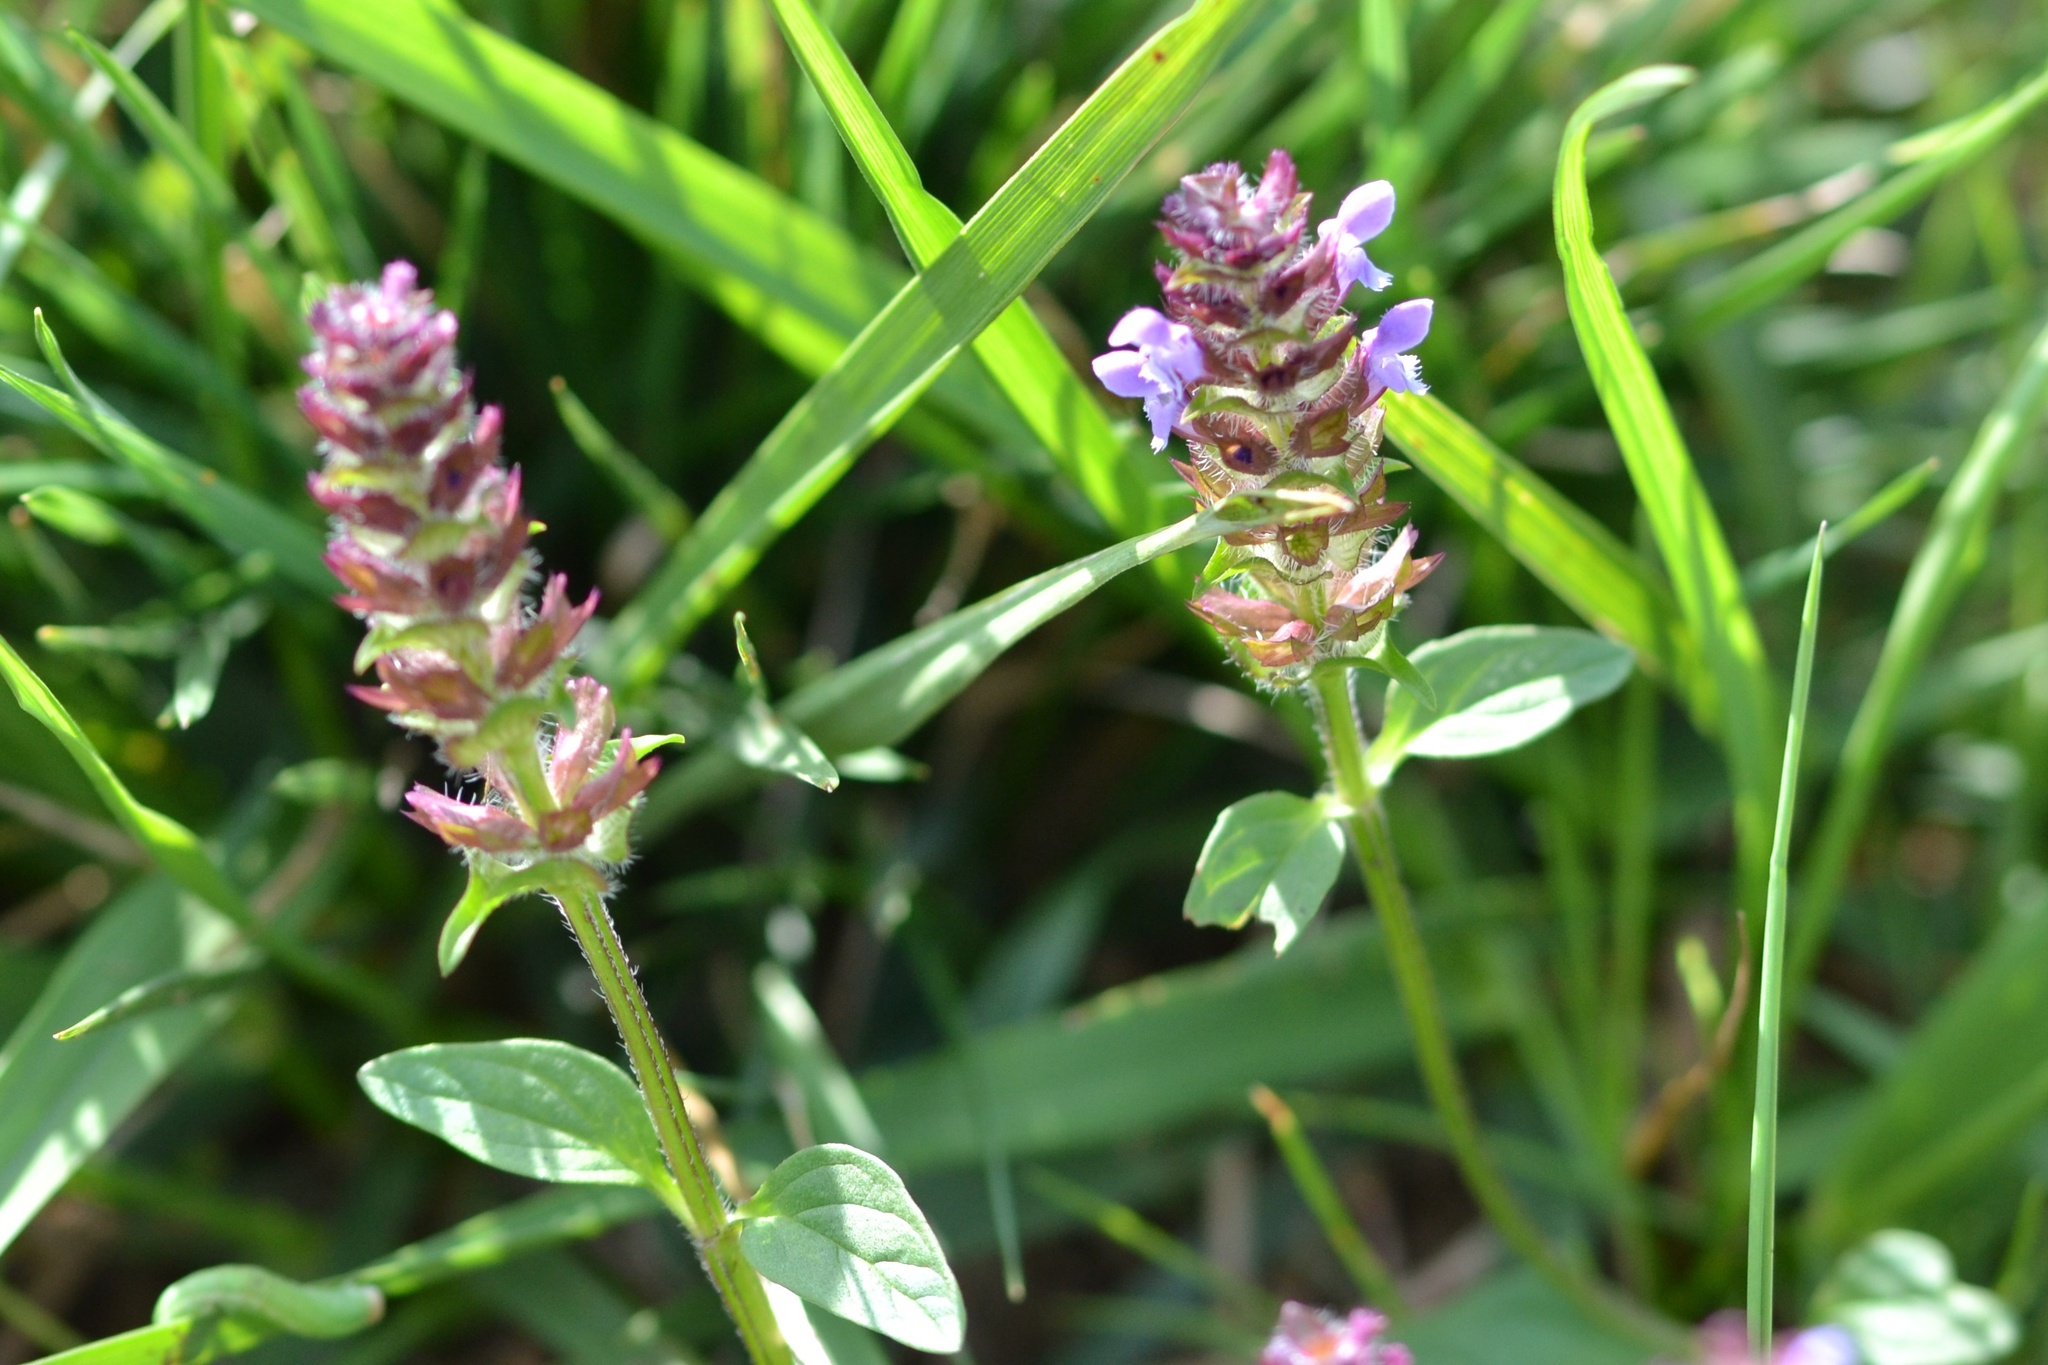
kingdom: Plantae
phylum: Tracheophyta
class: Magnoliopsida
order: Lamiales
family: Lamiaceae
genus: Prunella
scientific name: Prunella vulgaris
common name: Heal-all
